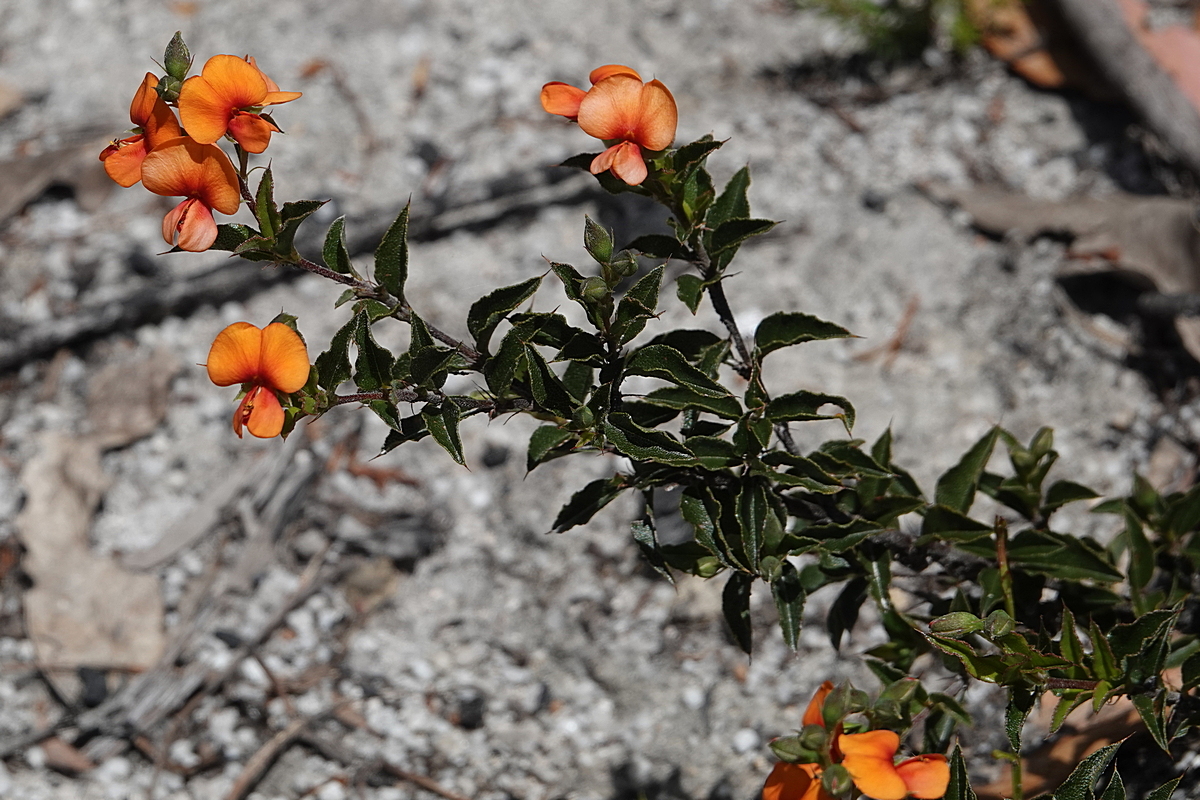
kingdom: Plantae
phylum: Tracheophyta
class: Magnoliopsida
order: Fabales
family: Fabaceae
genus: Podolobium
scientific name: Podolobium procumbens
